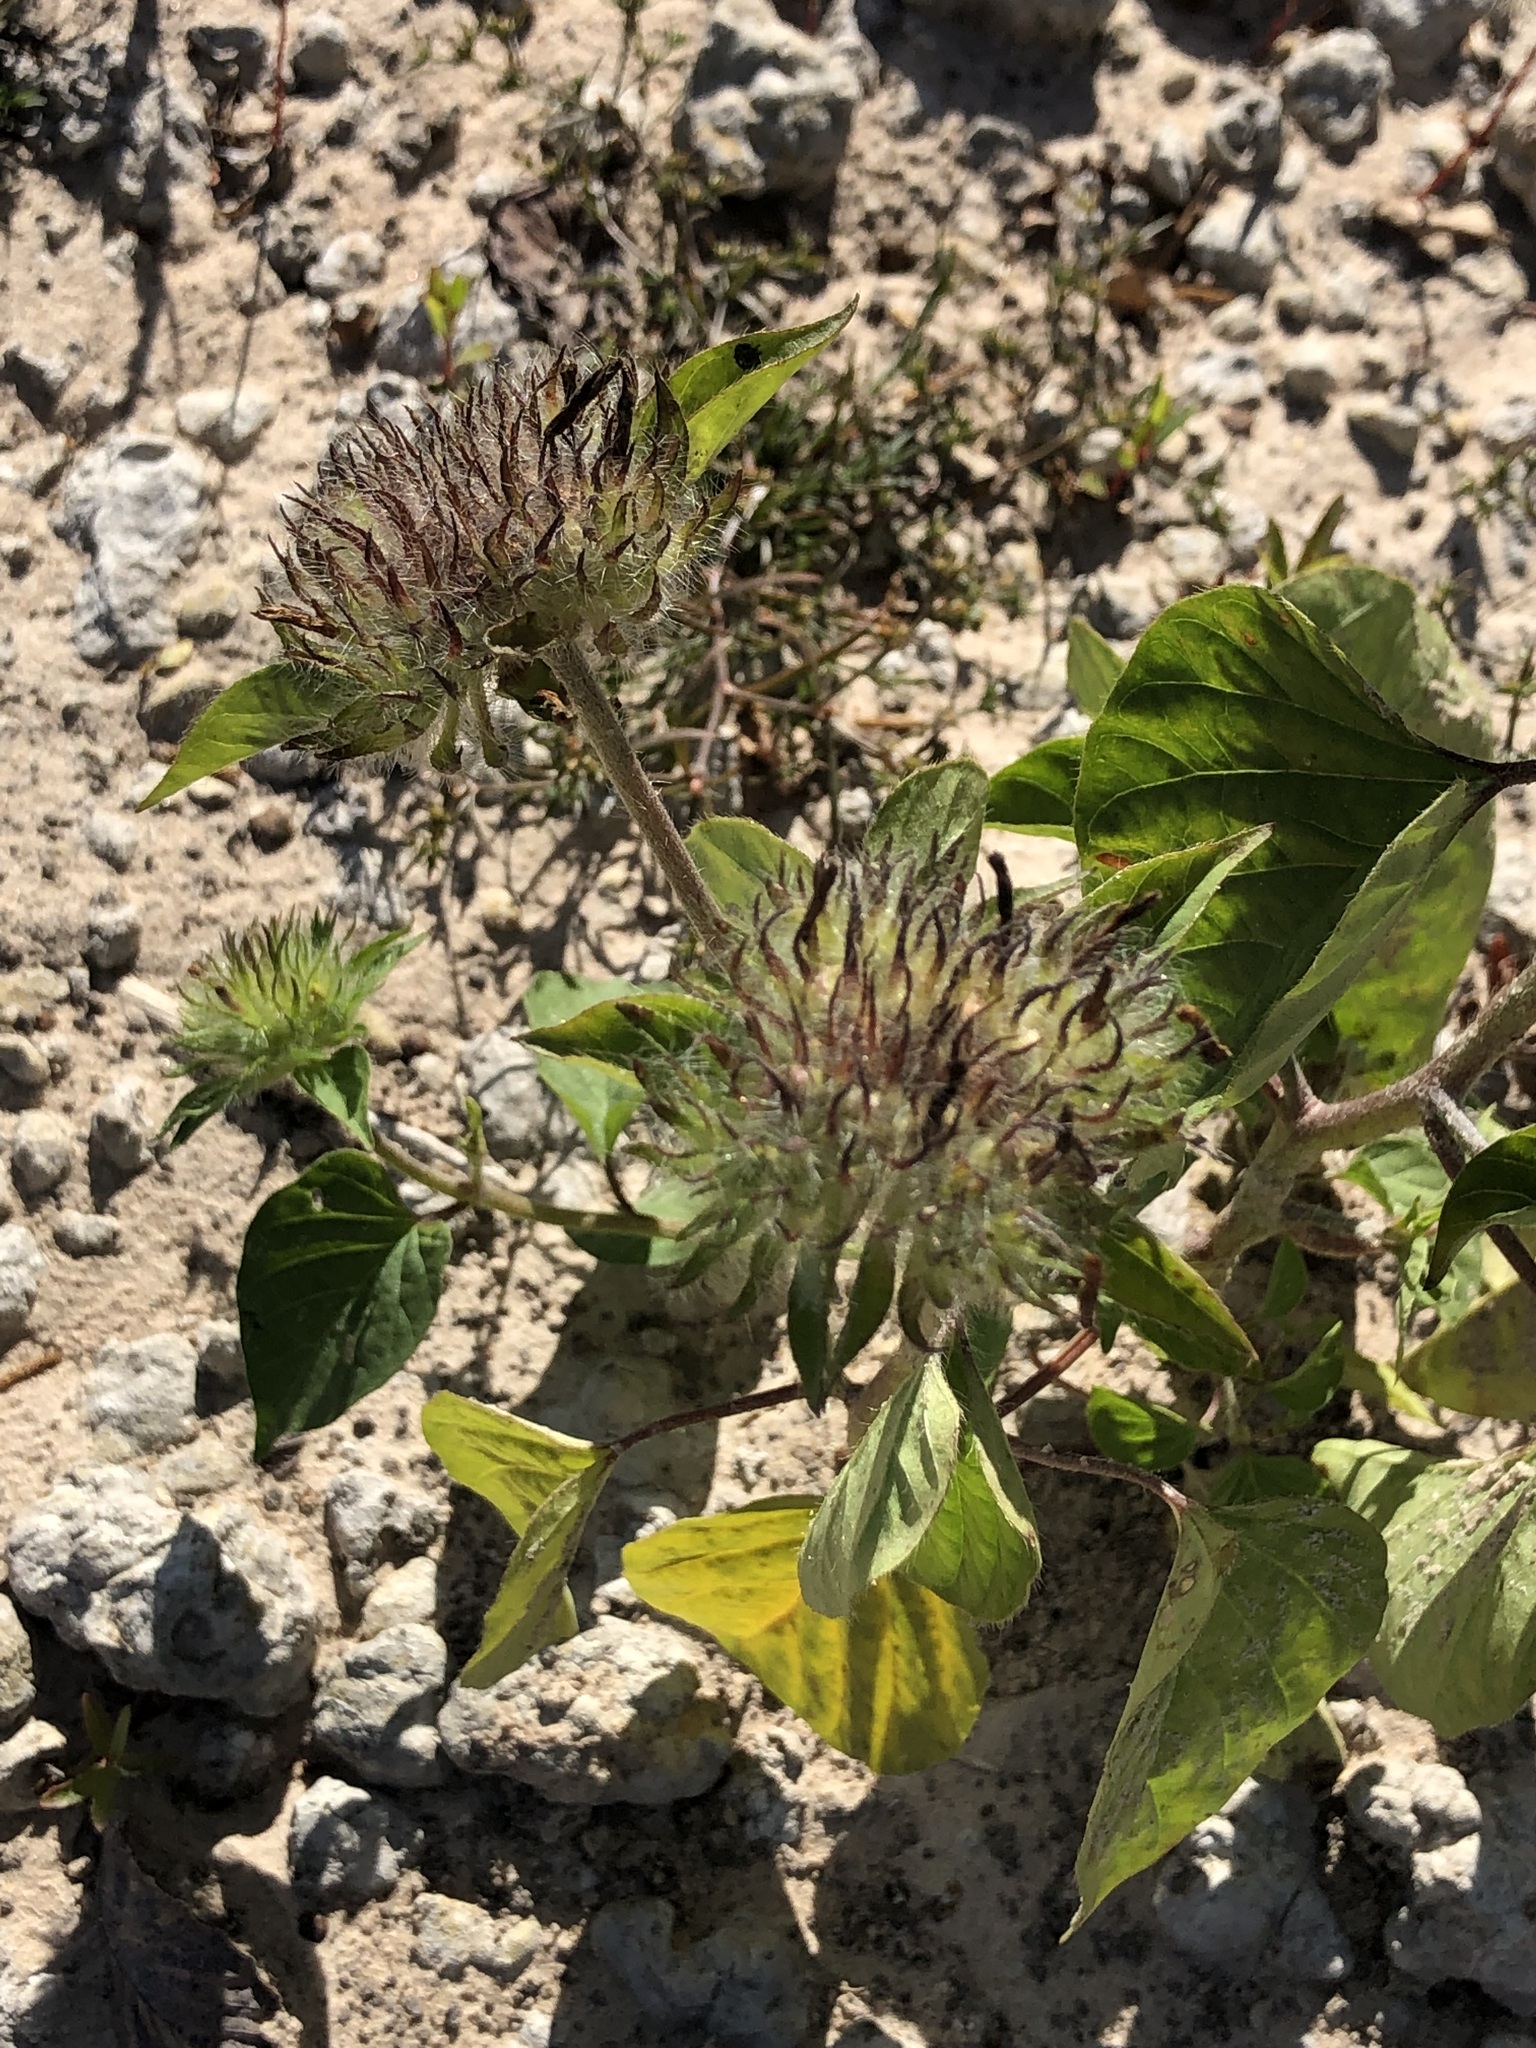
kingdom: Plantae
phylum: Tracheophyta
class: Magnoliopsida
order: Solanales
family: Convolvulaceae
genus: Jacquemontia
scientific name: Jacquemontia tamnifolia
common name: Hairy clustervine
